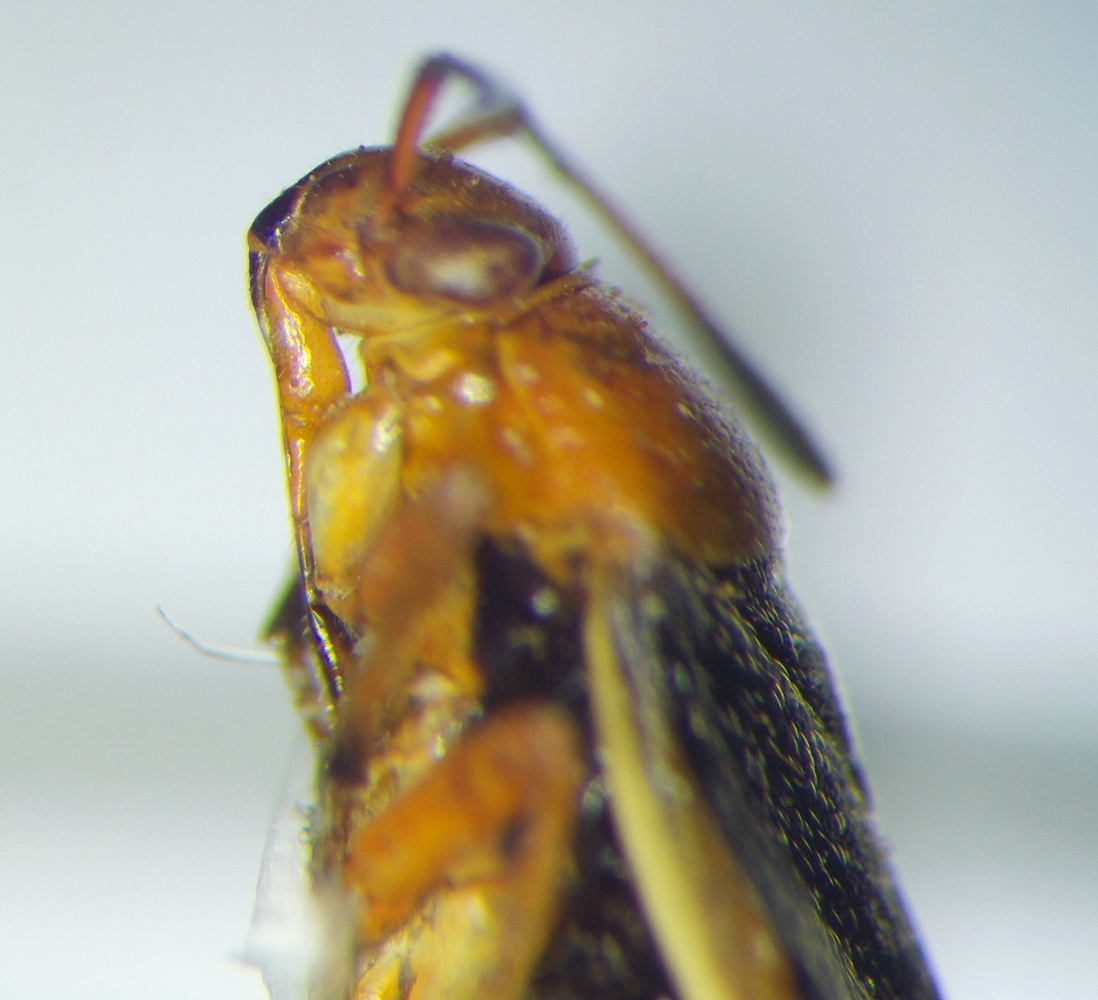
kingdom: Animalia
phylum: Arthropoda
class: Insecta
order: Hemiptera
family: Miridae
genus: Capsus
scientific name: Capsus cinctus
